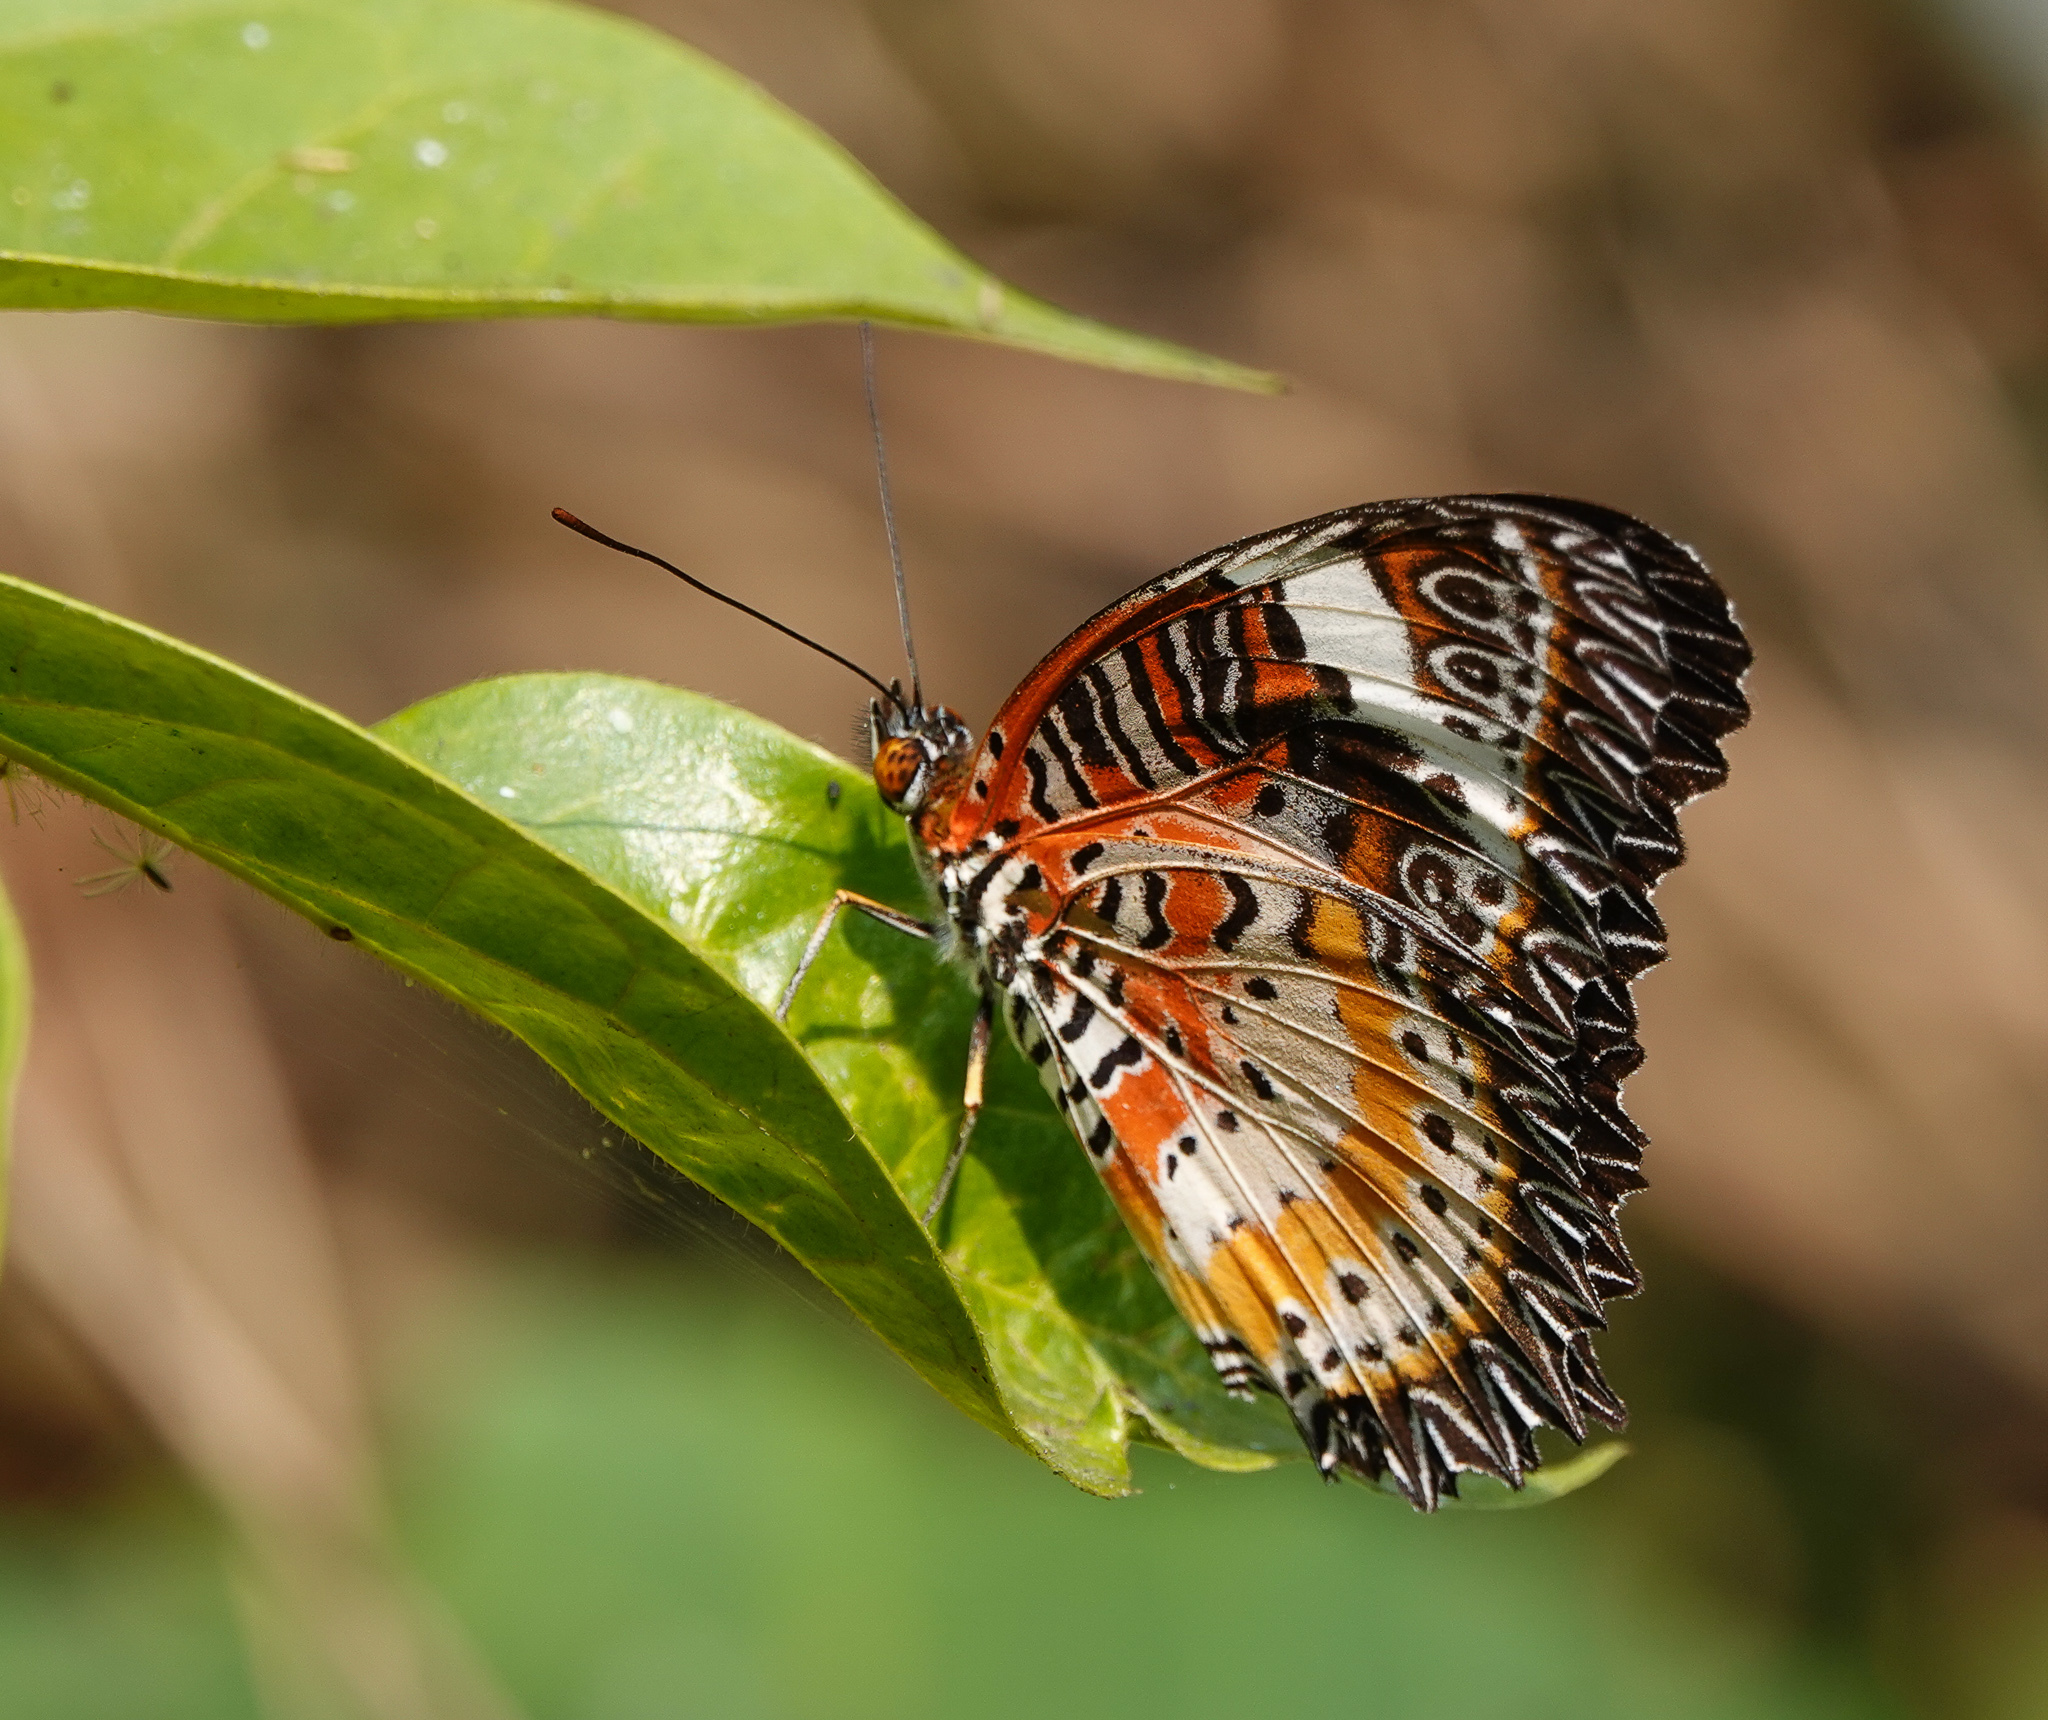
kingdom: Animalia
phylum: Arthropoda
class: Insecta
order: Lepidoptera
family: Nymphalidae
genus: Cethosia
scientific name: Cethosia cyane
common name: Leopard lacewing butterfly
